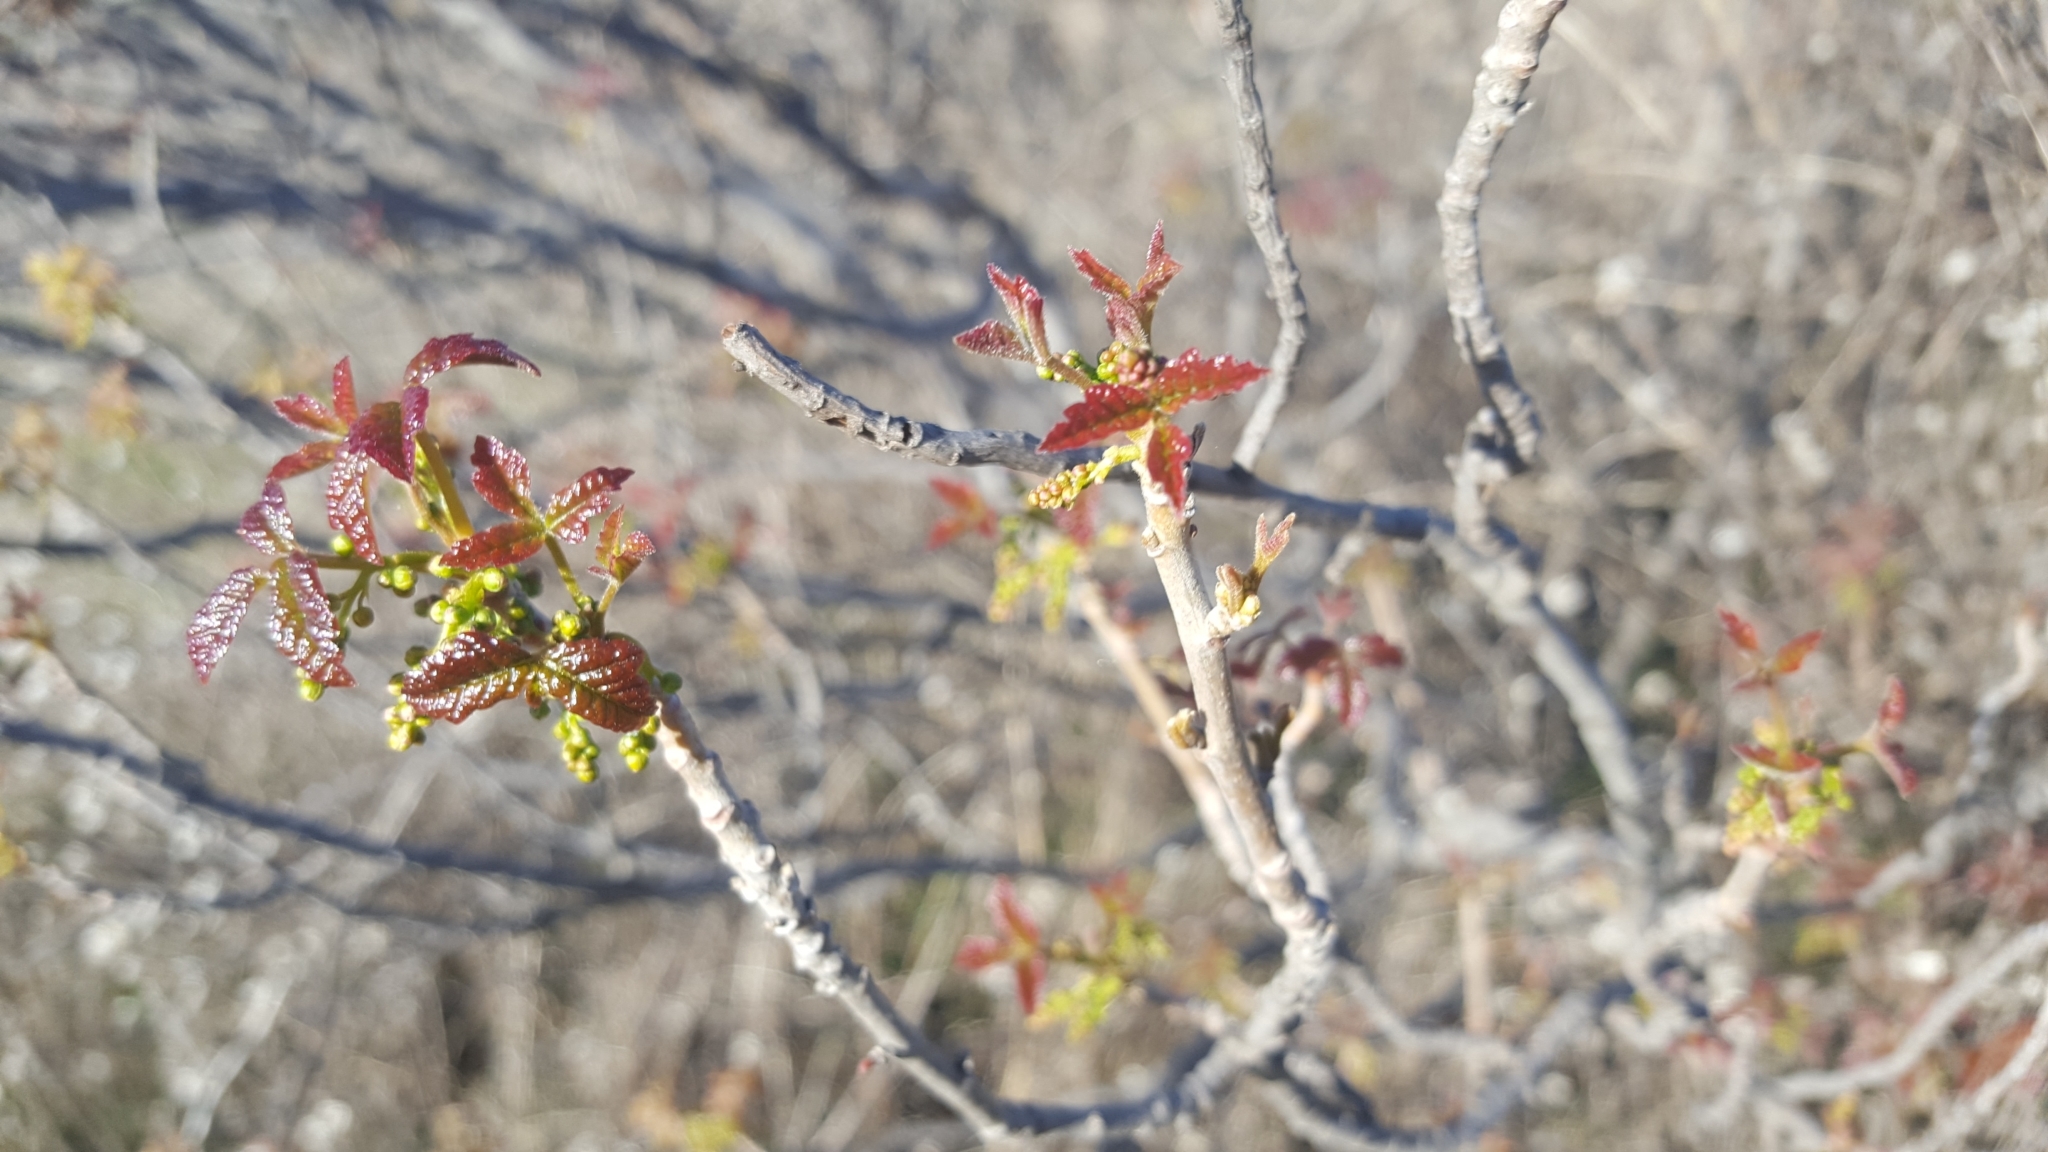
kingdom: Plantae
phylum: Tracheophyta
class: Magnoliopsida
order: Sapindales
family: Anacardiaceae
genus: Toxicodendron
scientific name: Toxicodendron diversilobum
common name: Pacific poison-oak
